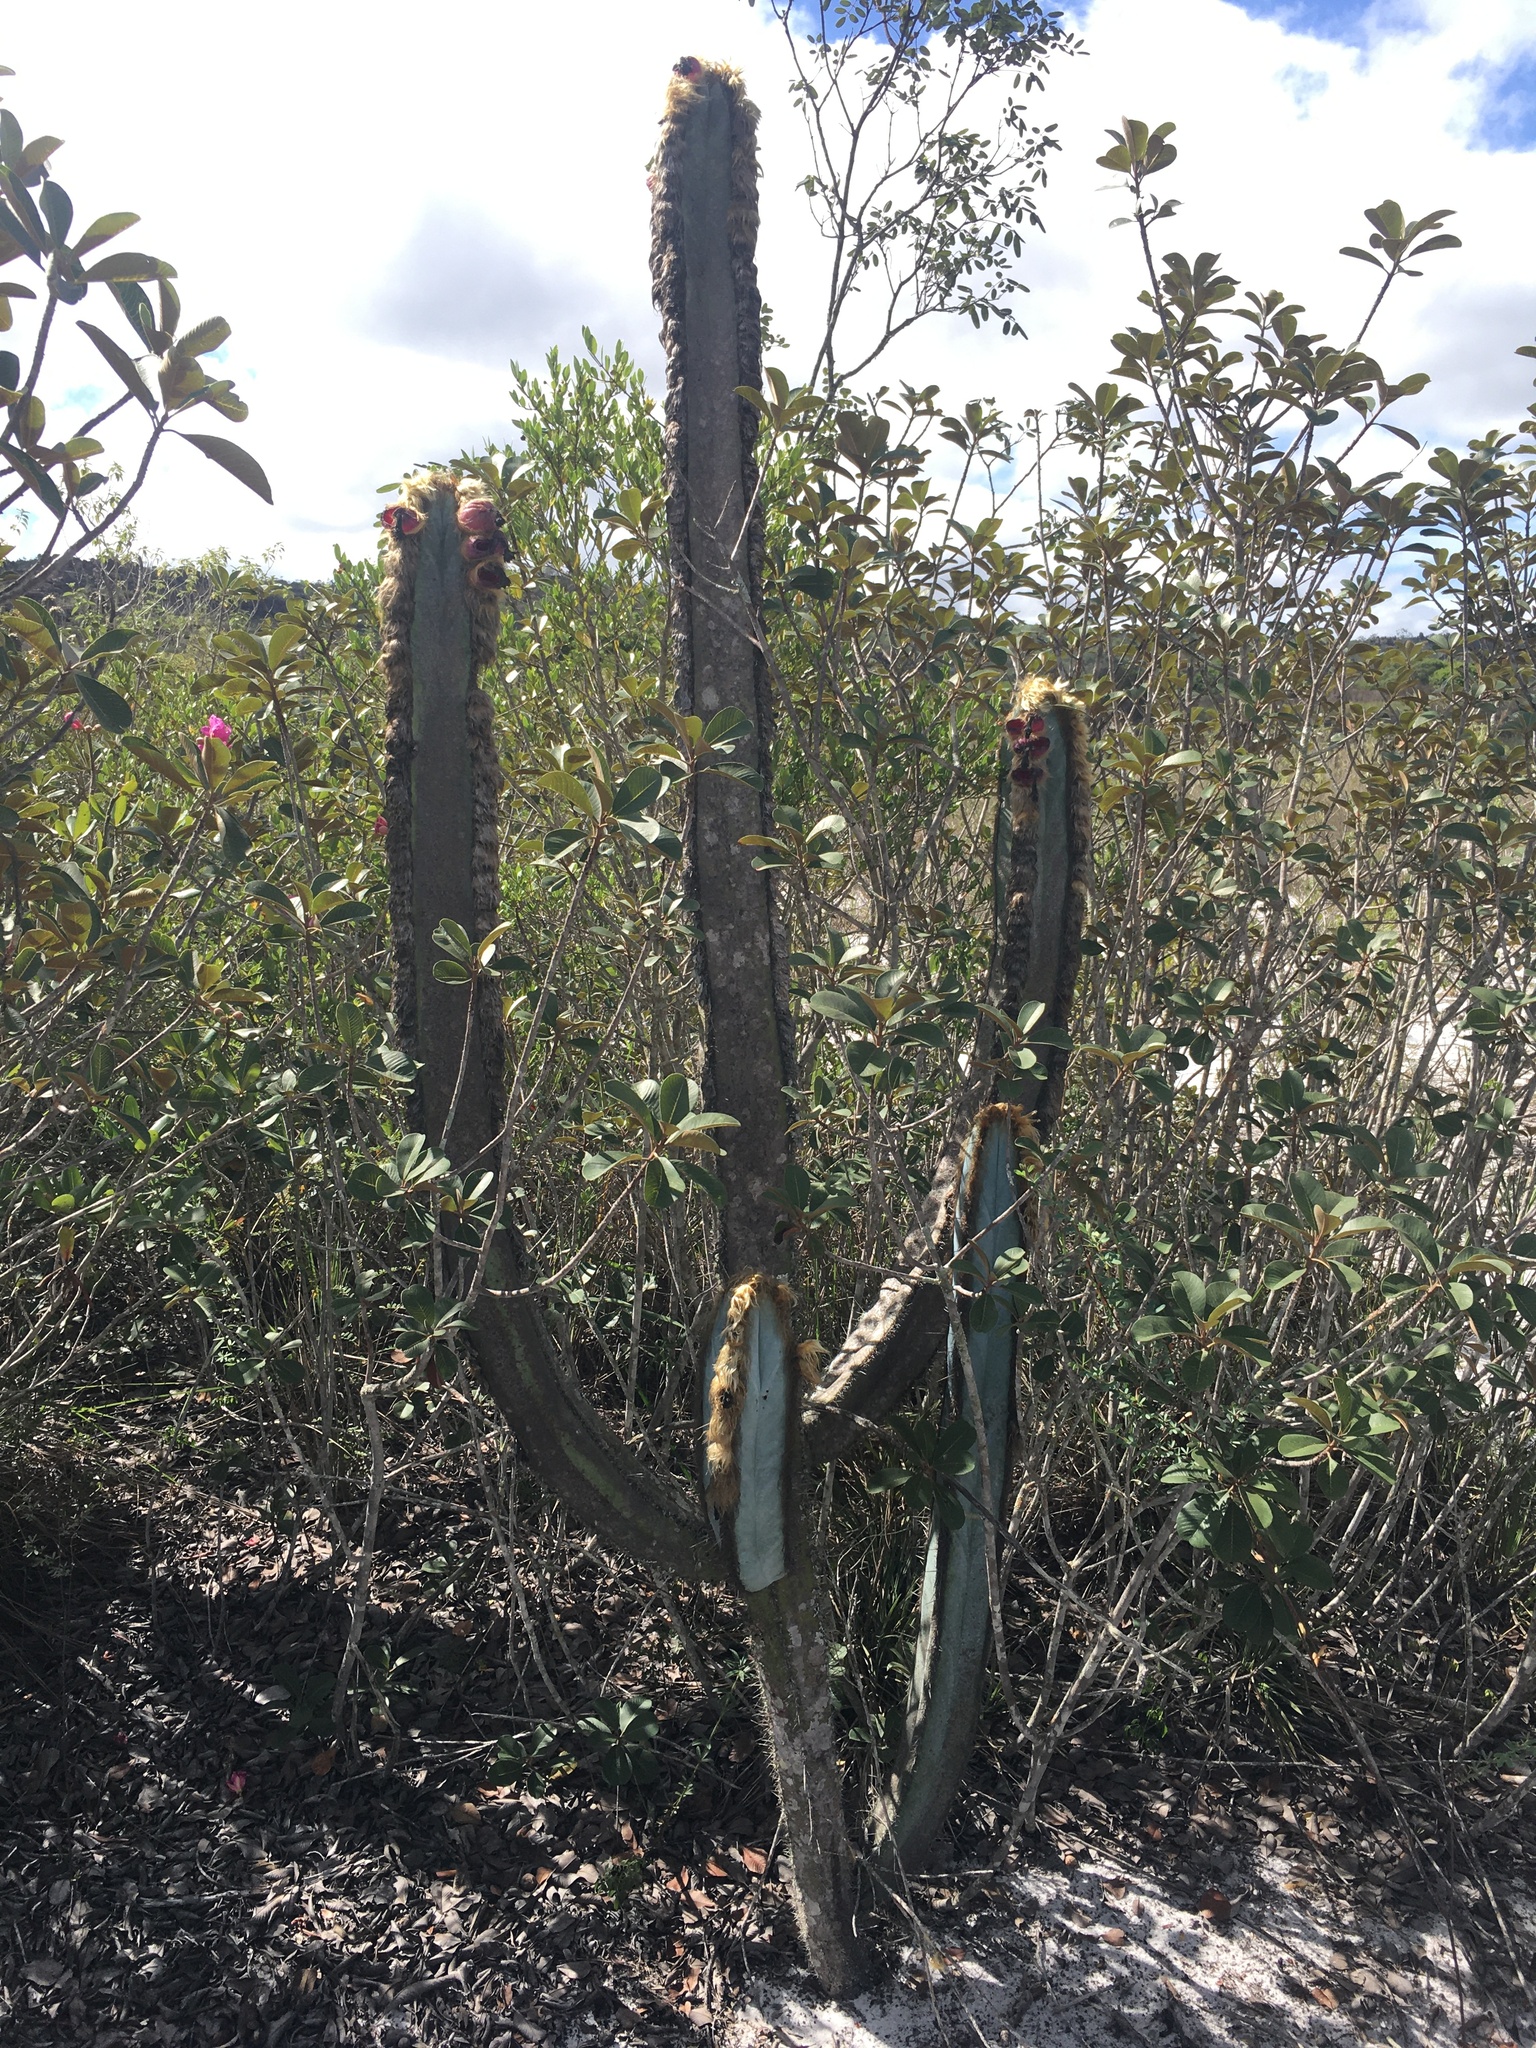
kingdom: Plantae
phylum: Tracheophyta
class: Magnoliopsida
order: Caryophyllales
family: Cactaceae
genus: Pilosocereus
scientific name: Pilosocereus fulvilanatus
